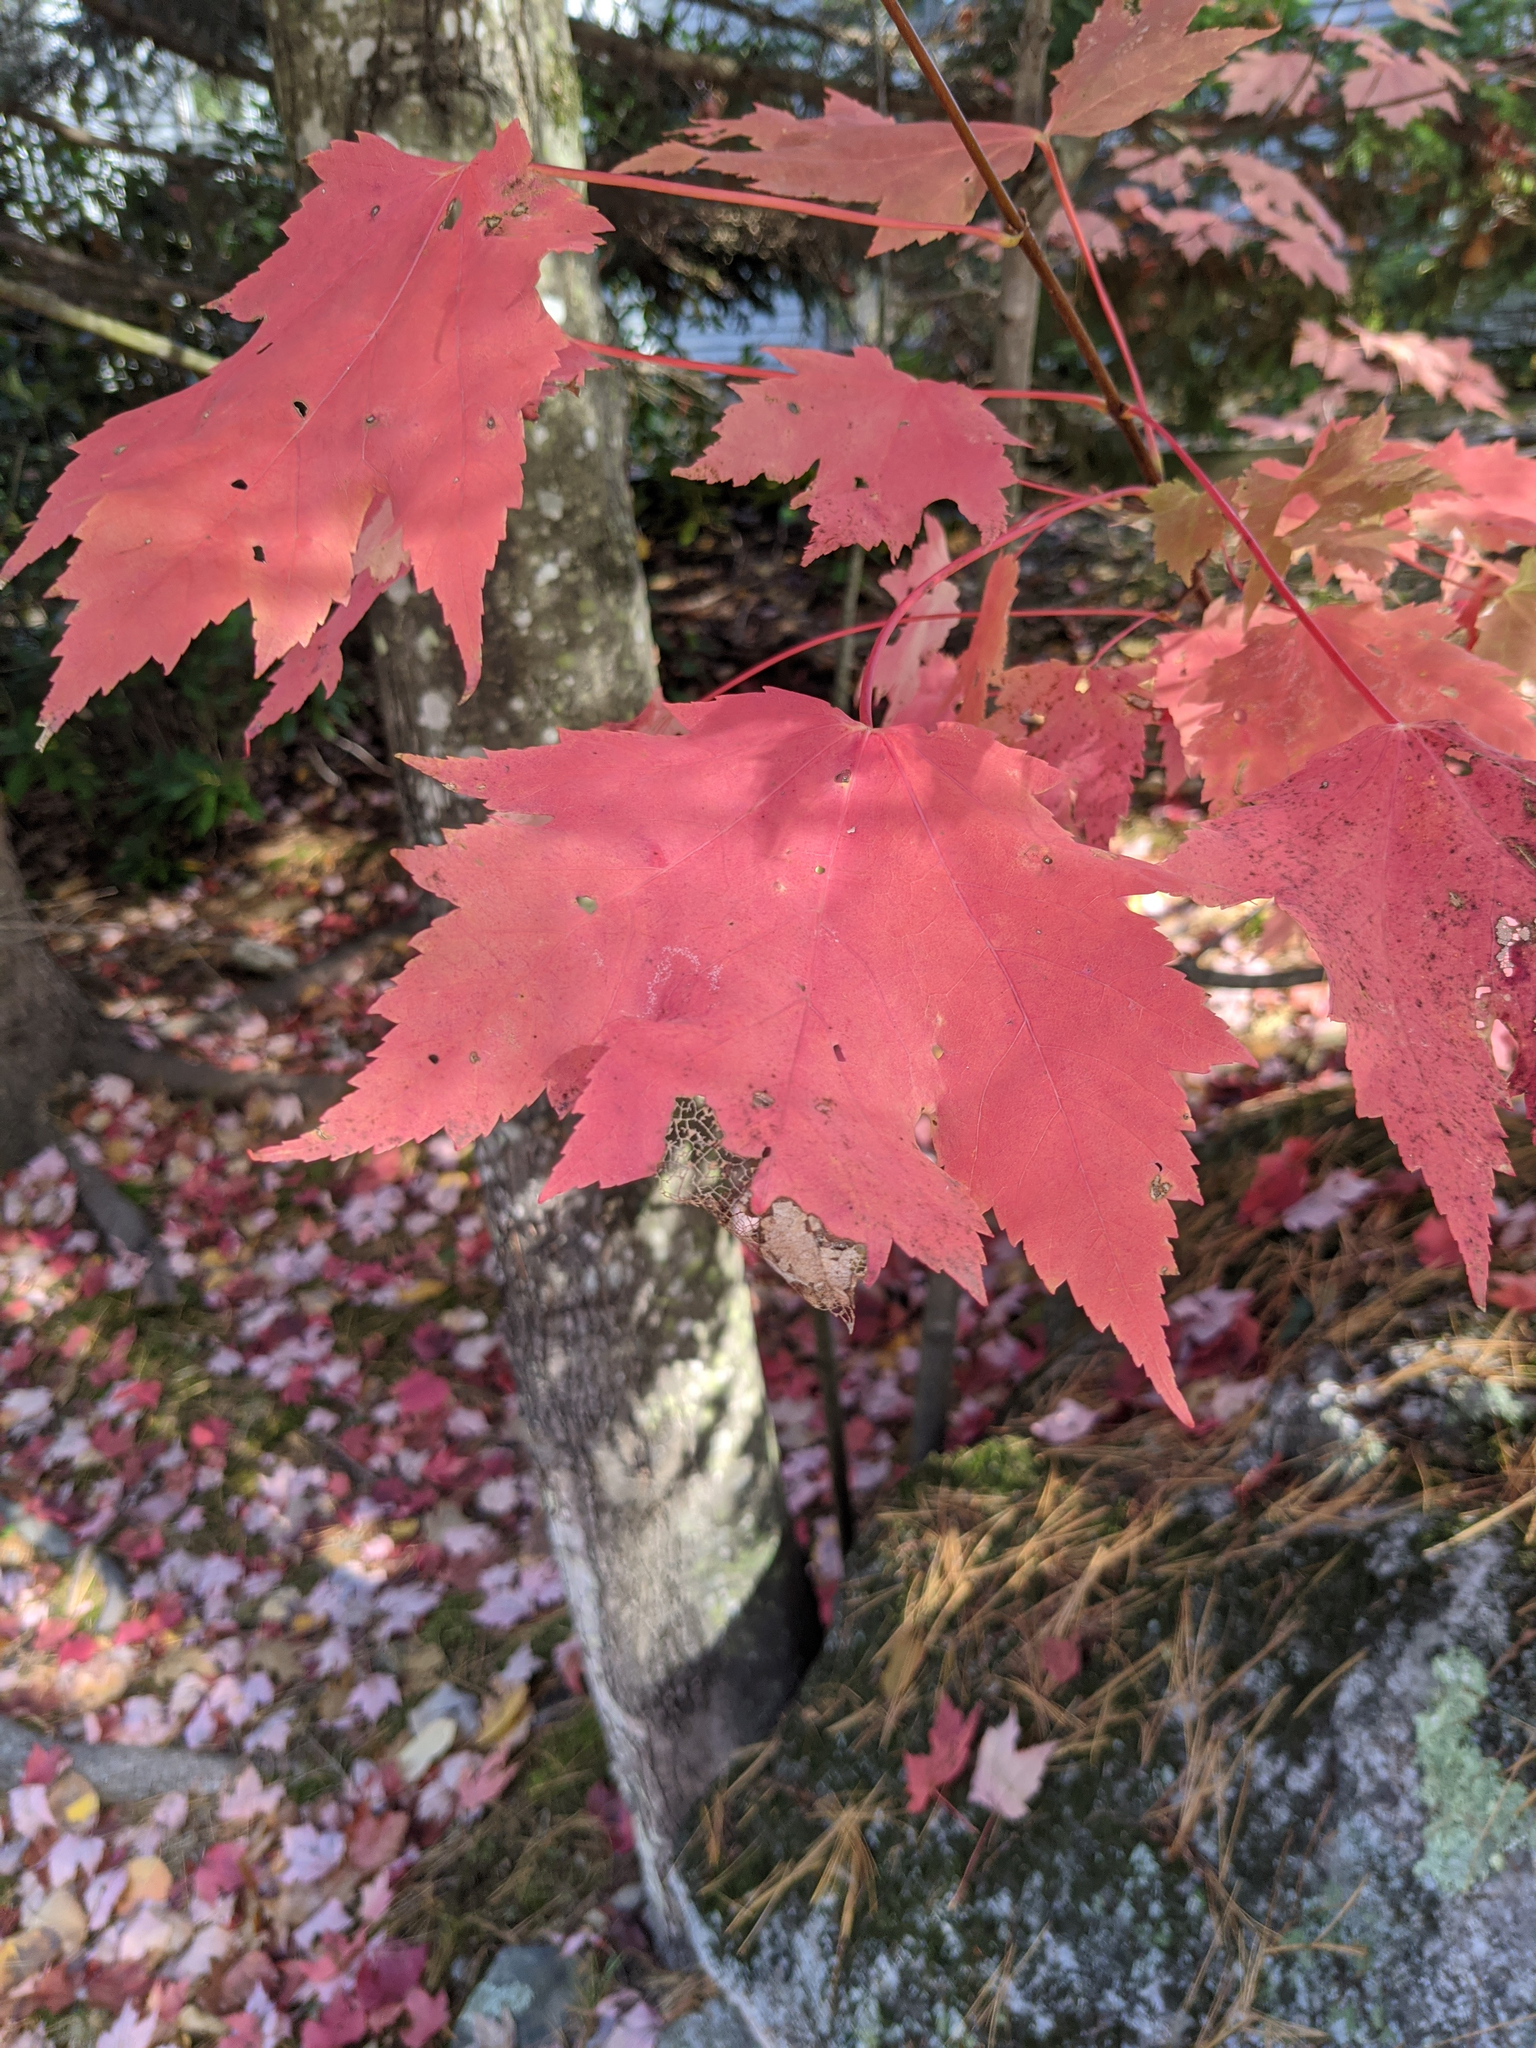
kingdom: Plantae
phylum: Tracheophyta
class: Magnoliopsida
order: Sapindales
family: Sapindaceae
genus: Acer
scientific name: Acer rubrum
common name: Red maple
